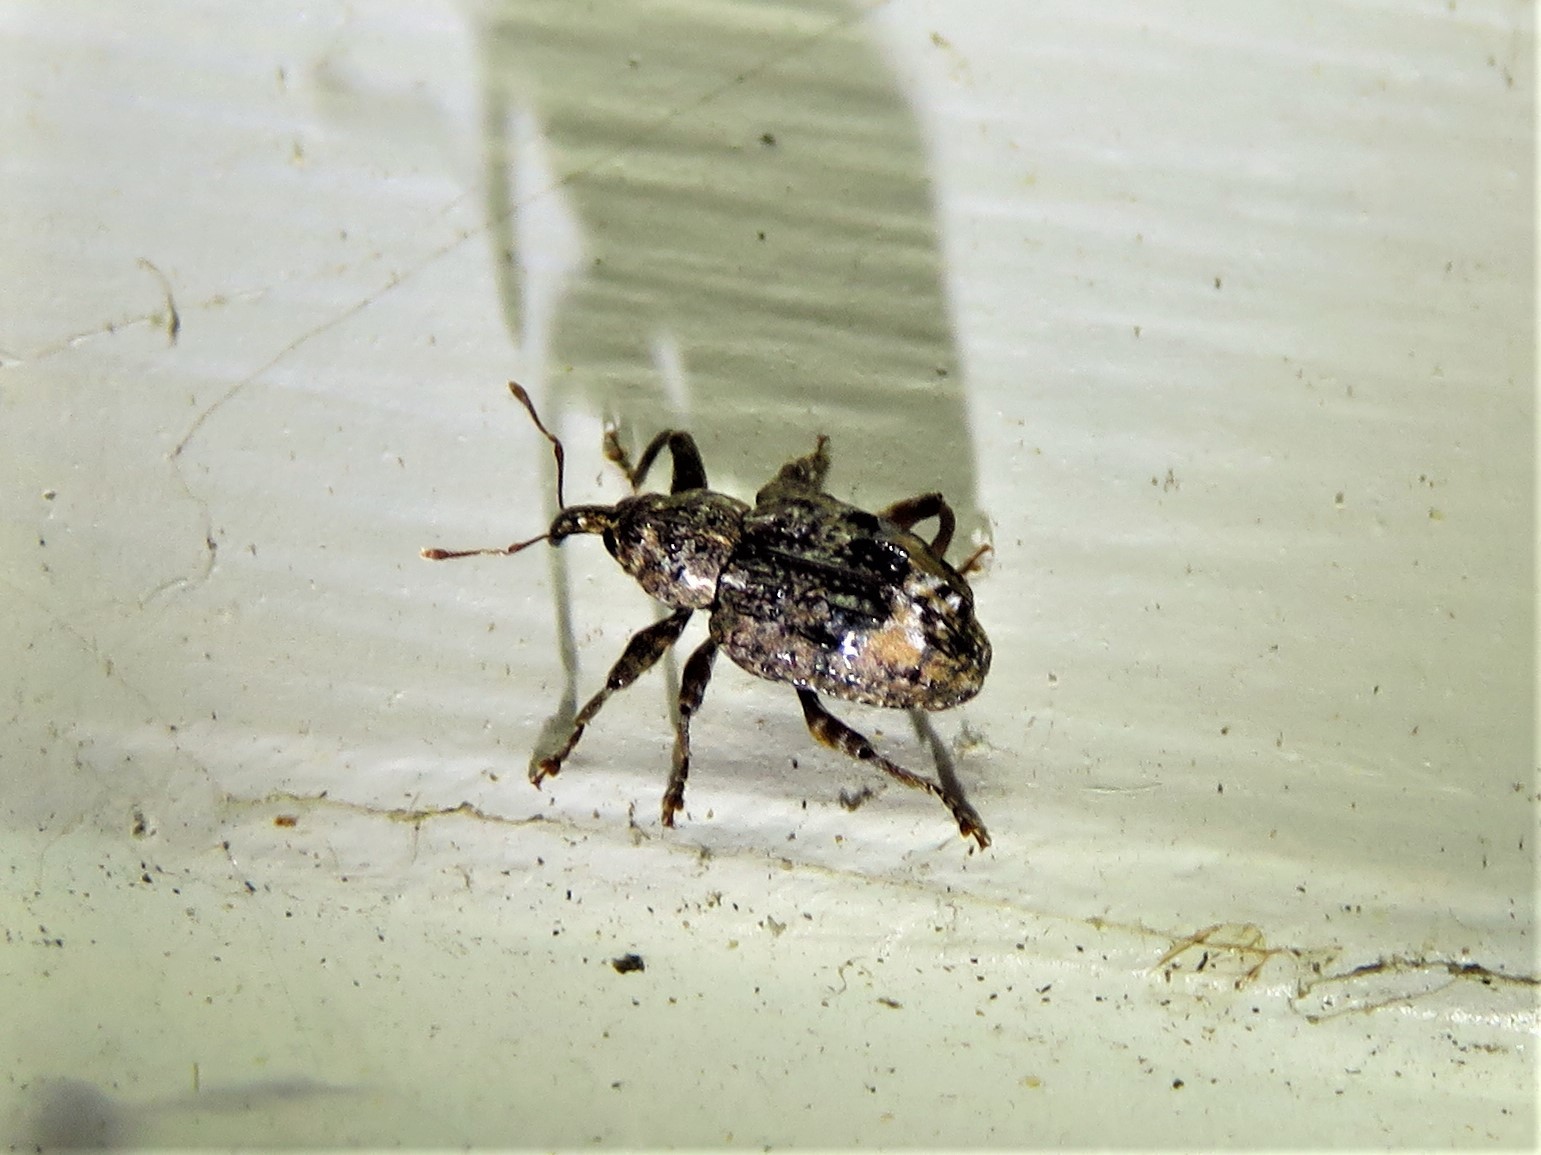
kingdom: Animalia
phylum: Arthropoda
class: Insecta
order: Coleoptera
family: Curculionidae
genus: Conotrachelus
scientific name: Conotrachelus nenuphar
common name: Plum curculio
